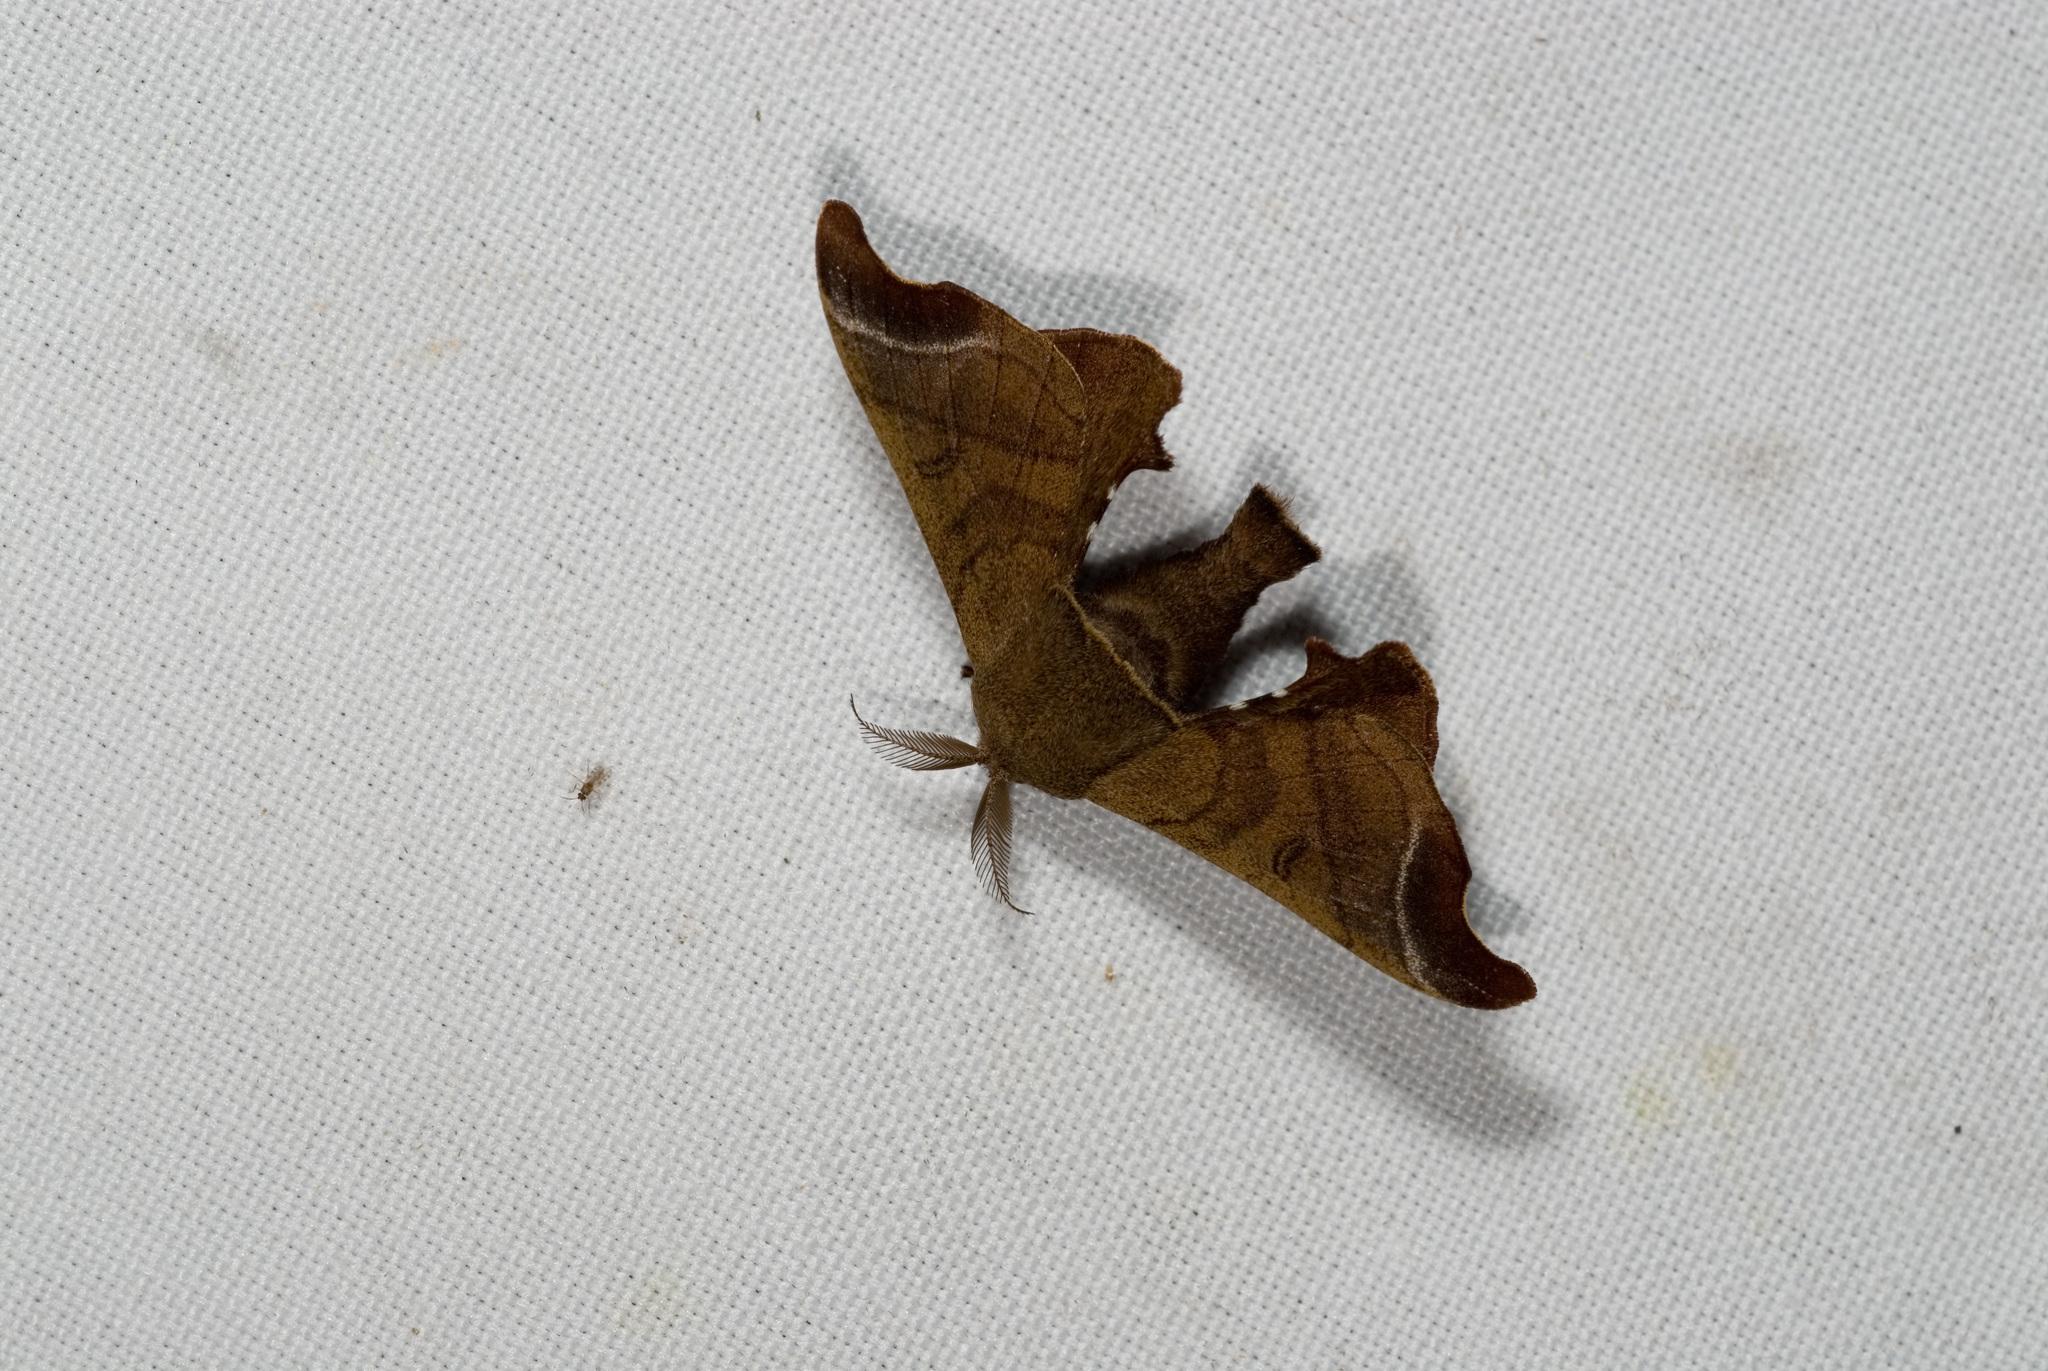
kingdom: Animalia
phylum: Arthropoda
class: Insecta
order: Lepidoptera
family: Bombycidae
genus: Bombyx
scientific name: Bombyx mandarina
